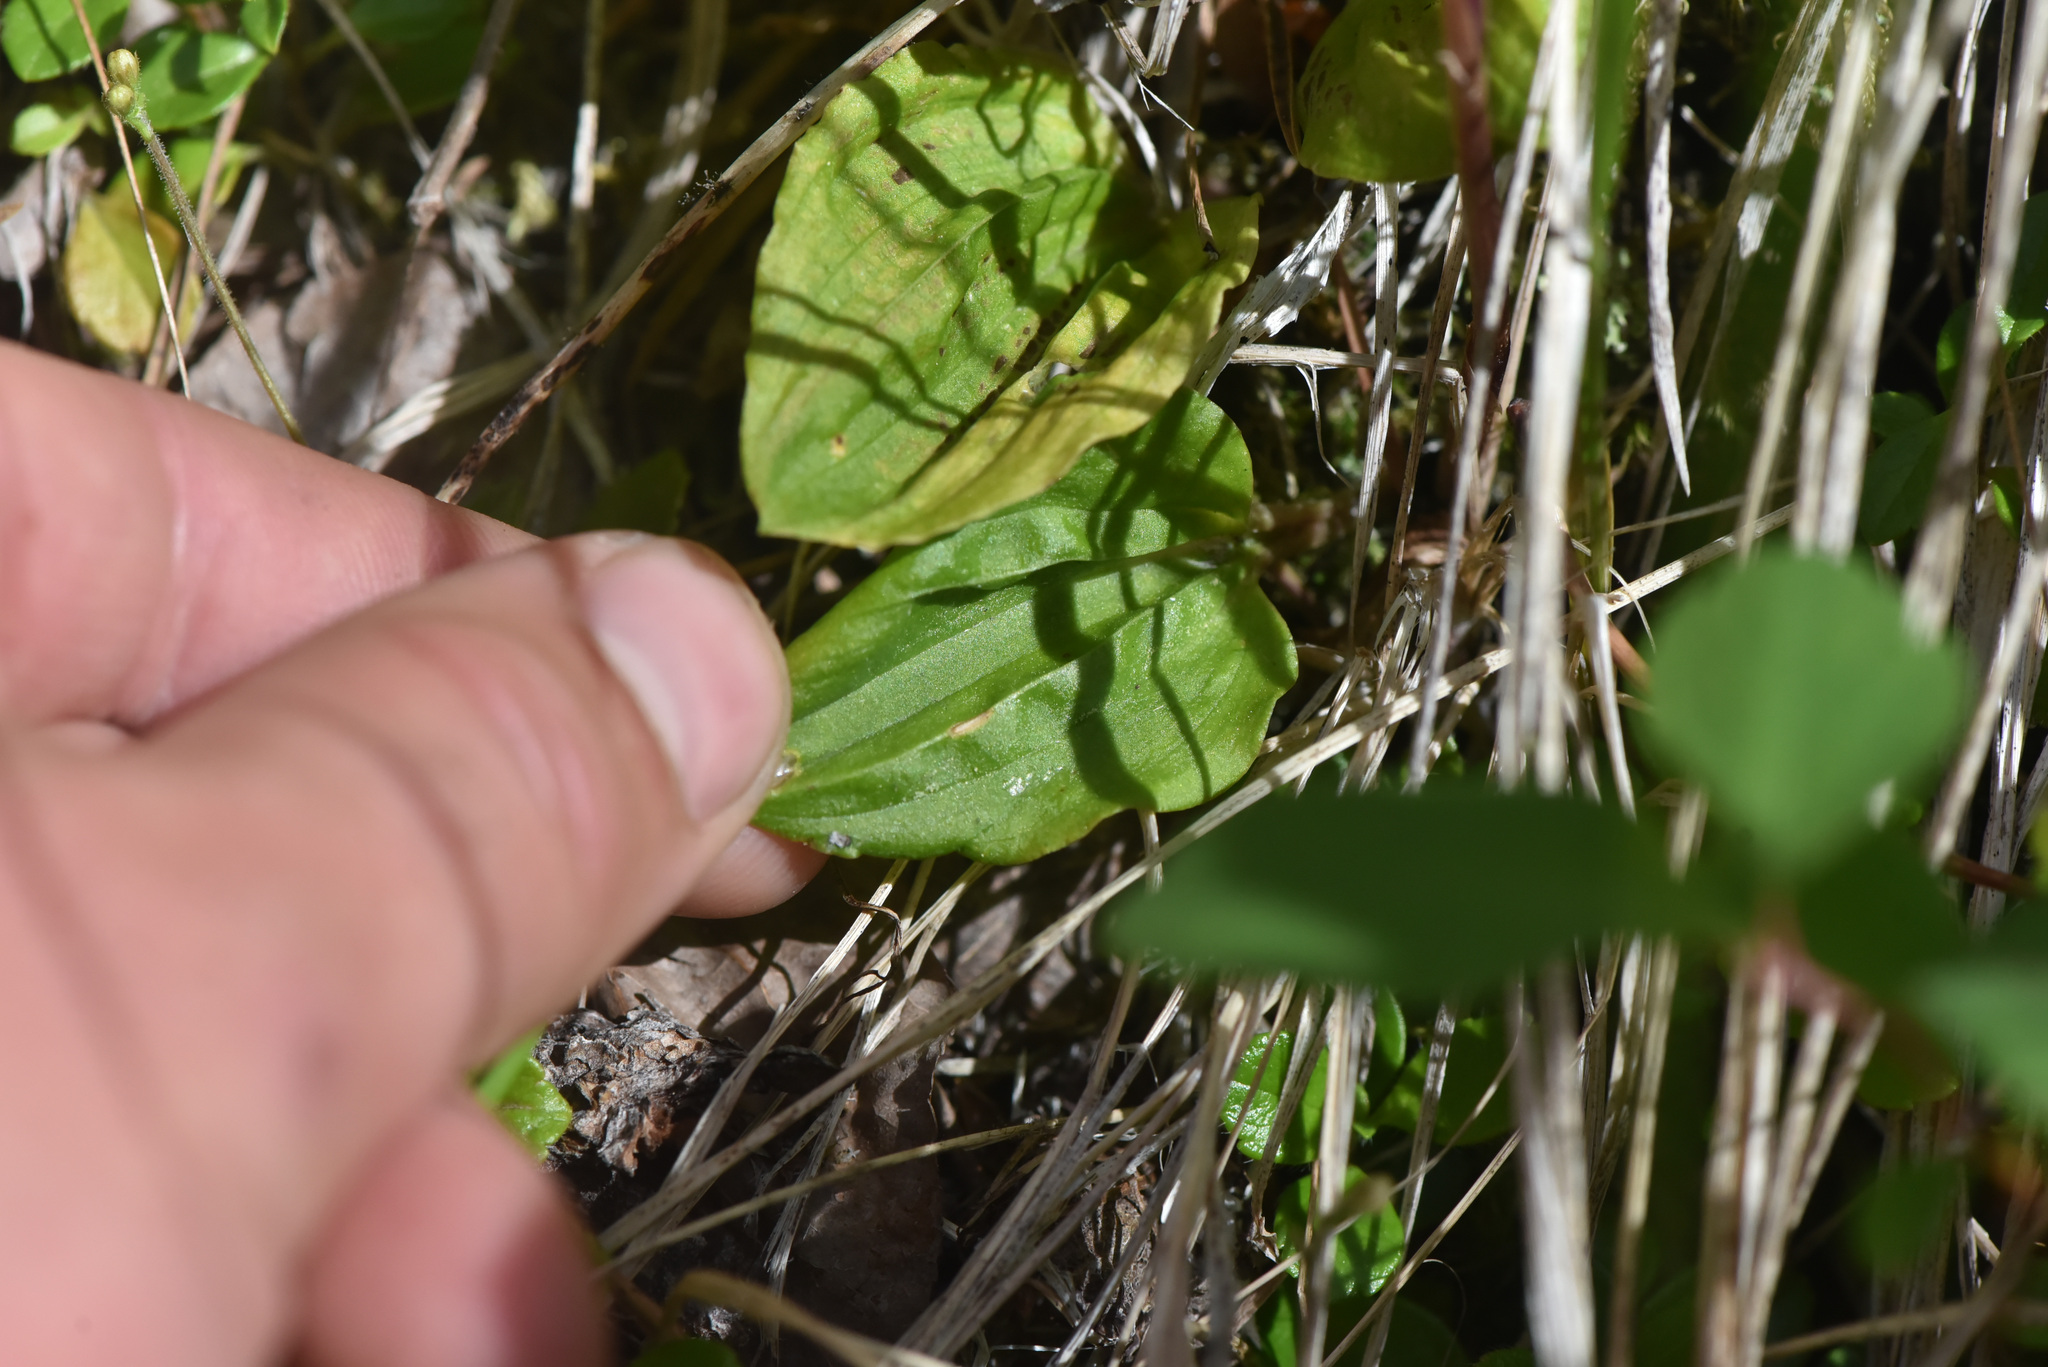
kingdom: Plantae
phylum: Tracheophyta
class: Liliopsida
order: Asparagales
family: Orchidaceae
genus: Calypso
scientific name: Calypso bulbosa
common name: Calypso
